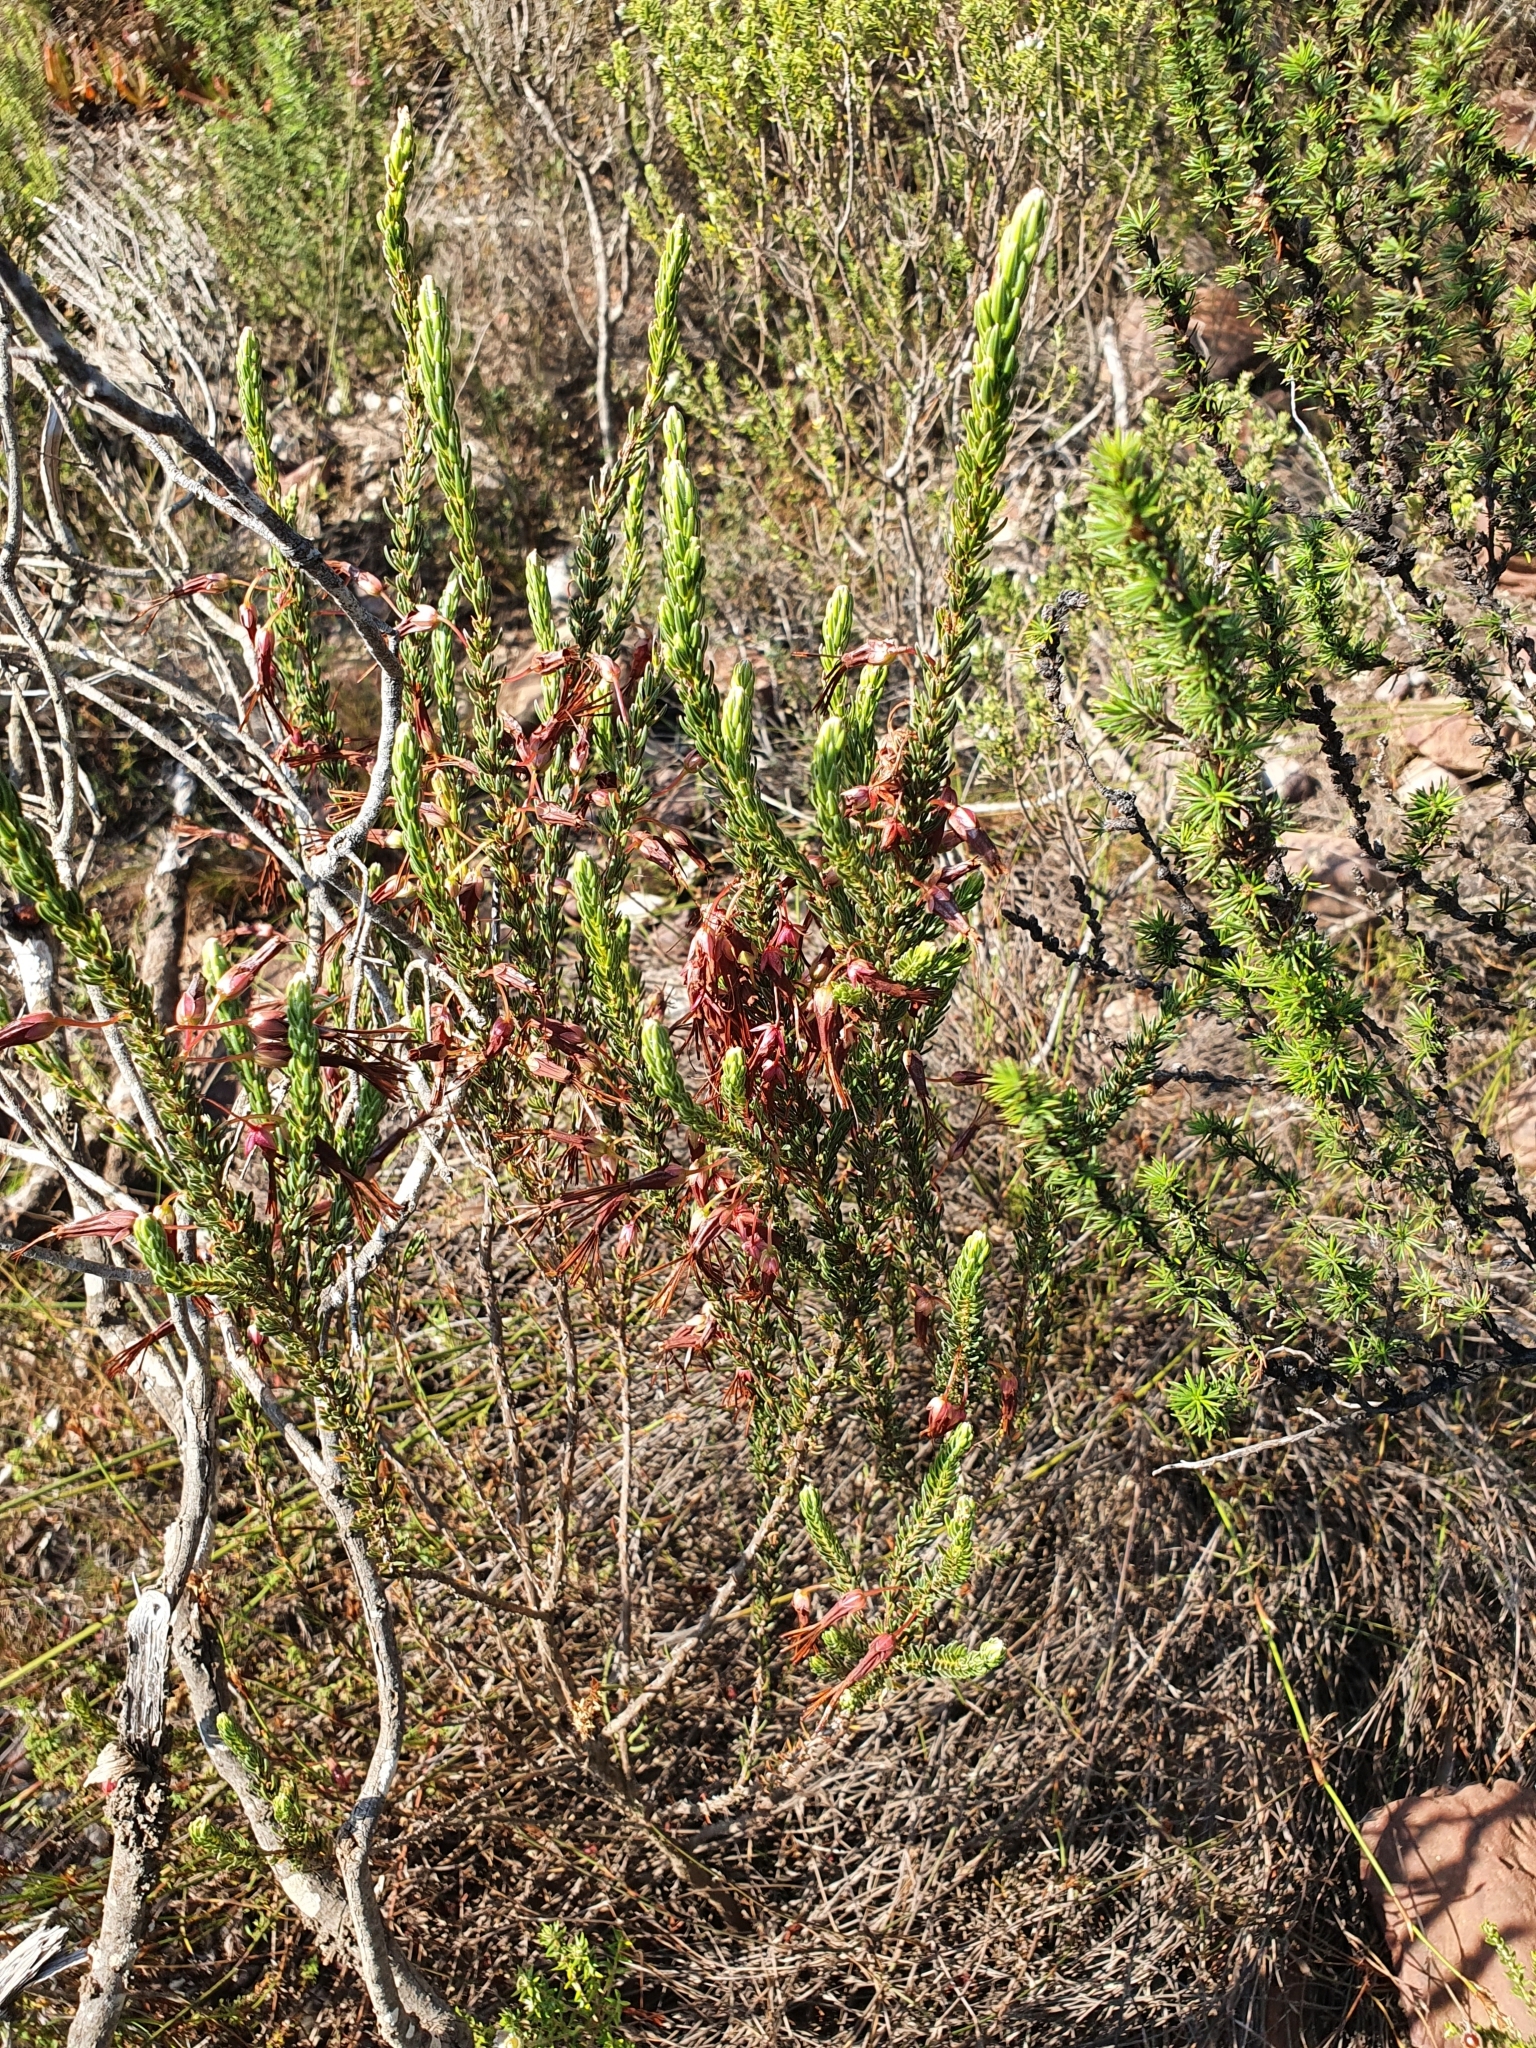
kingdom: Plantae
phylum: Tracheophyta
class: Magnoliopsida
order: Ericales
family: Ericaceae
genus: Erica
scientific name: Erica plukenetii
